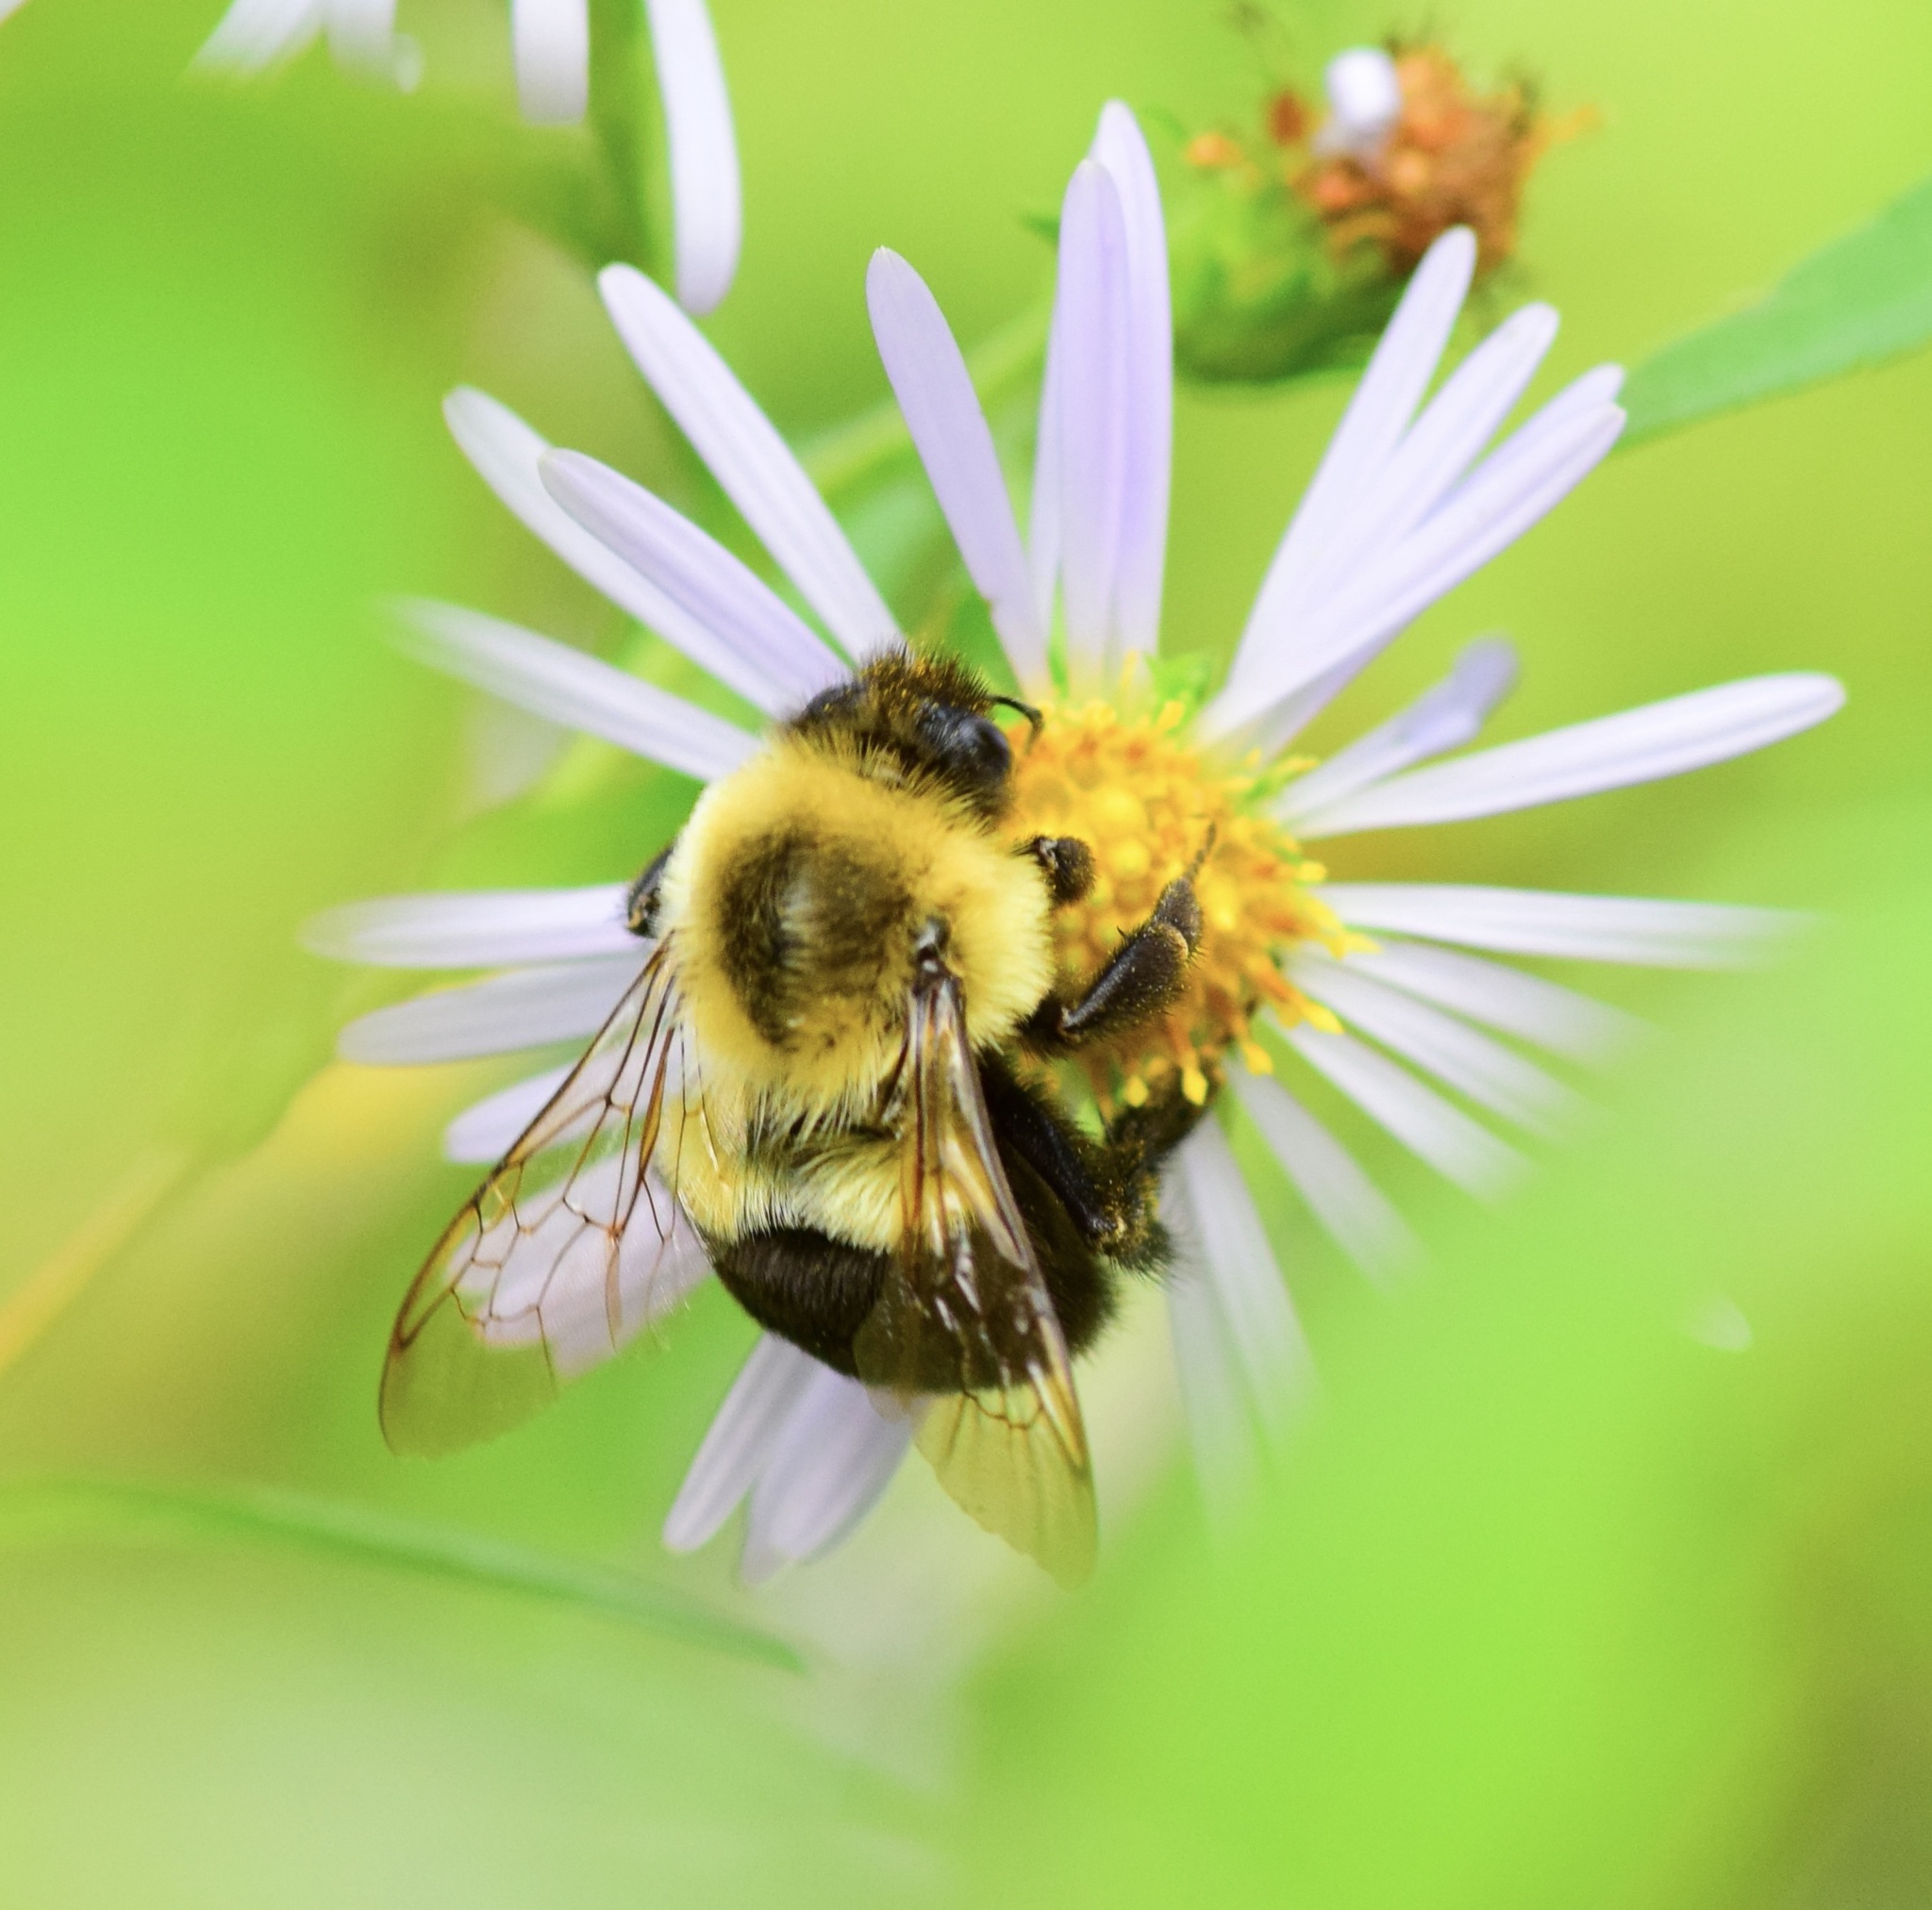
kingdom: Animalia
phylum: Arthropoda
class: Insecta
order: Hymenoptera
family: Apidae
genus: Bombus
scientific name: Bombus impatiens
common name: Common eastern bumble bee
